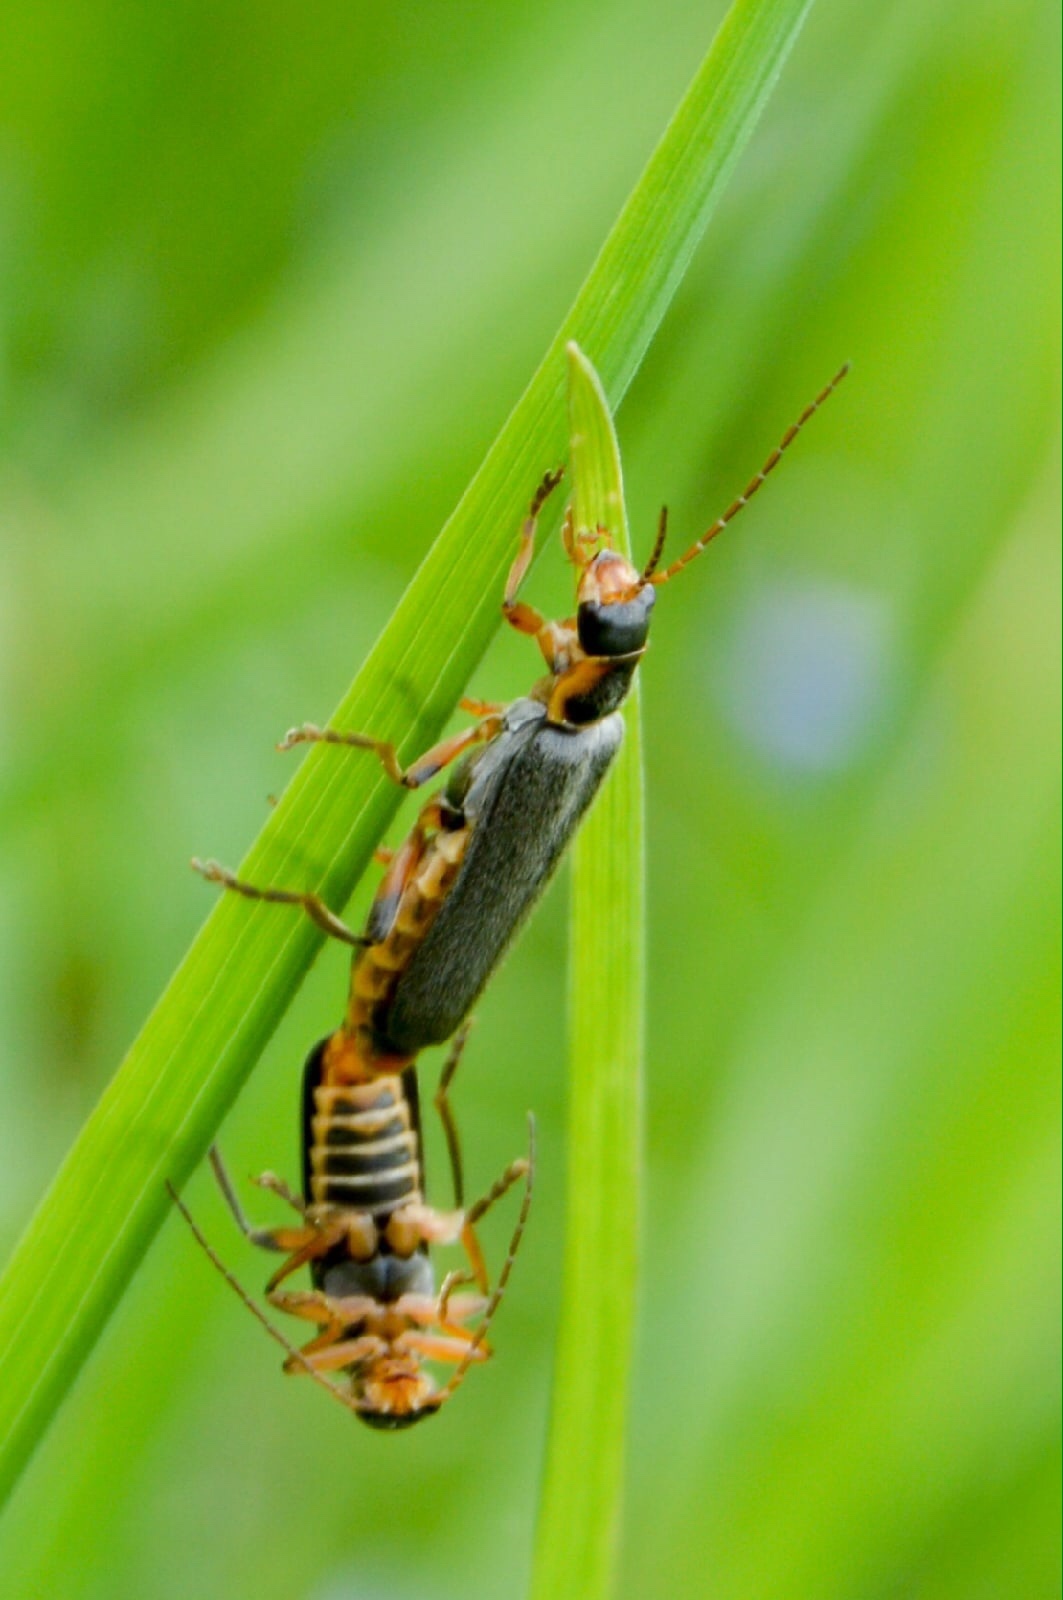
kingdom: Animalia
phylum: Arthropoda
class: Insecta
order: Coleoptera
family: Cantharidae
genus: Cantharis
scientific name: Cantharis nigricans
